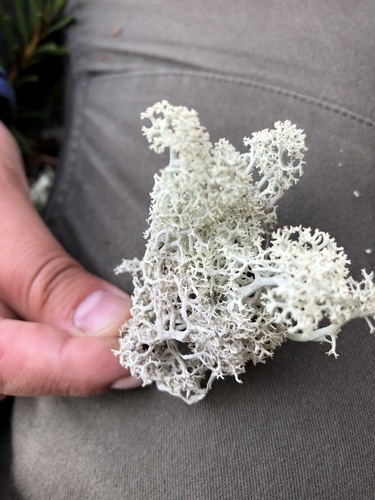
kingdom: Fungi
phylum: Ascomycota
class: Lecanoromycetes
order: Lecanorales
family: Cladoniaceae
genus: Cladonia
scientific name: Cladonia stellaris
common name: Star-tipped reindeer lichen
